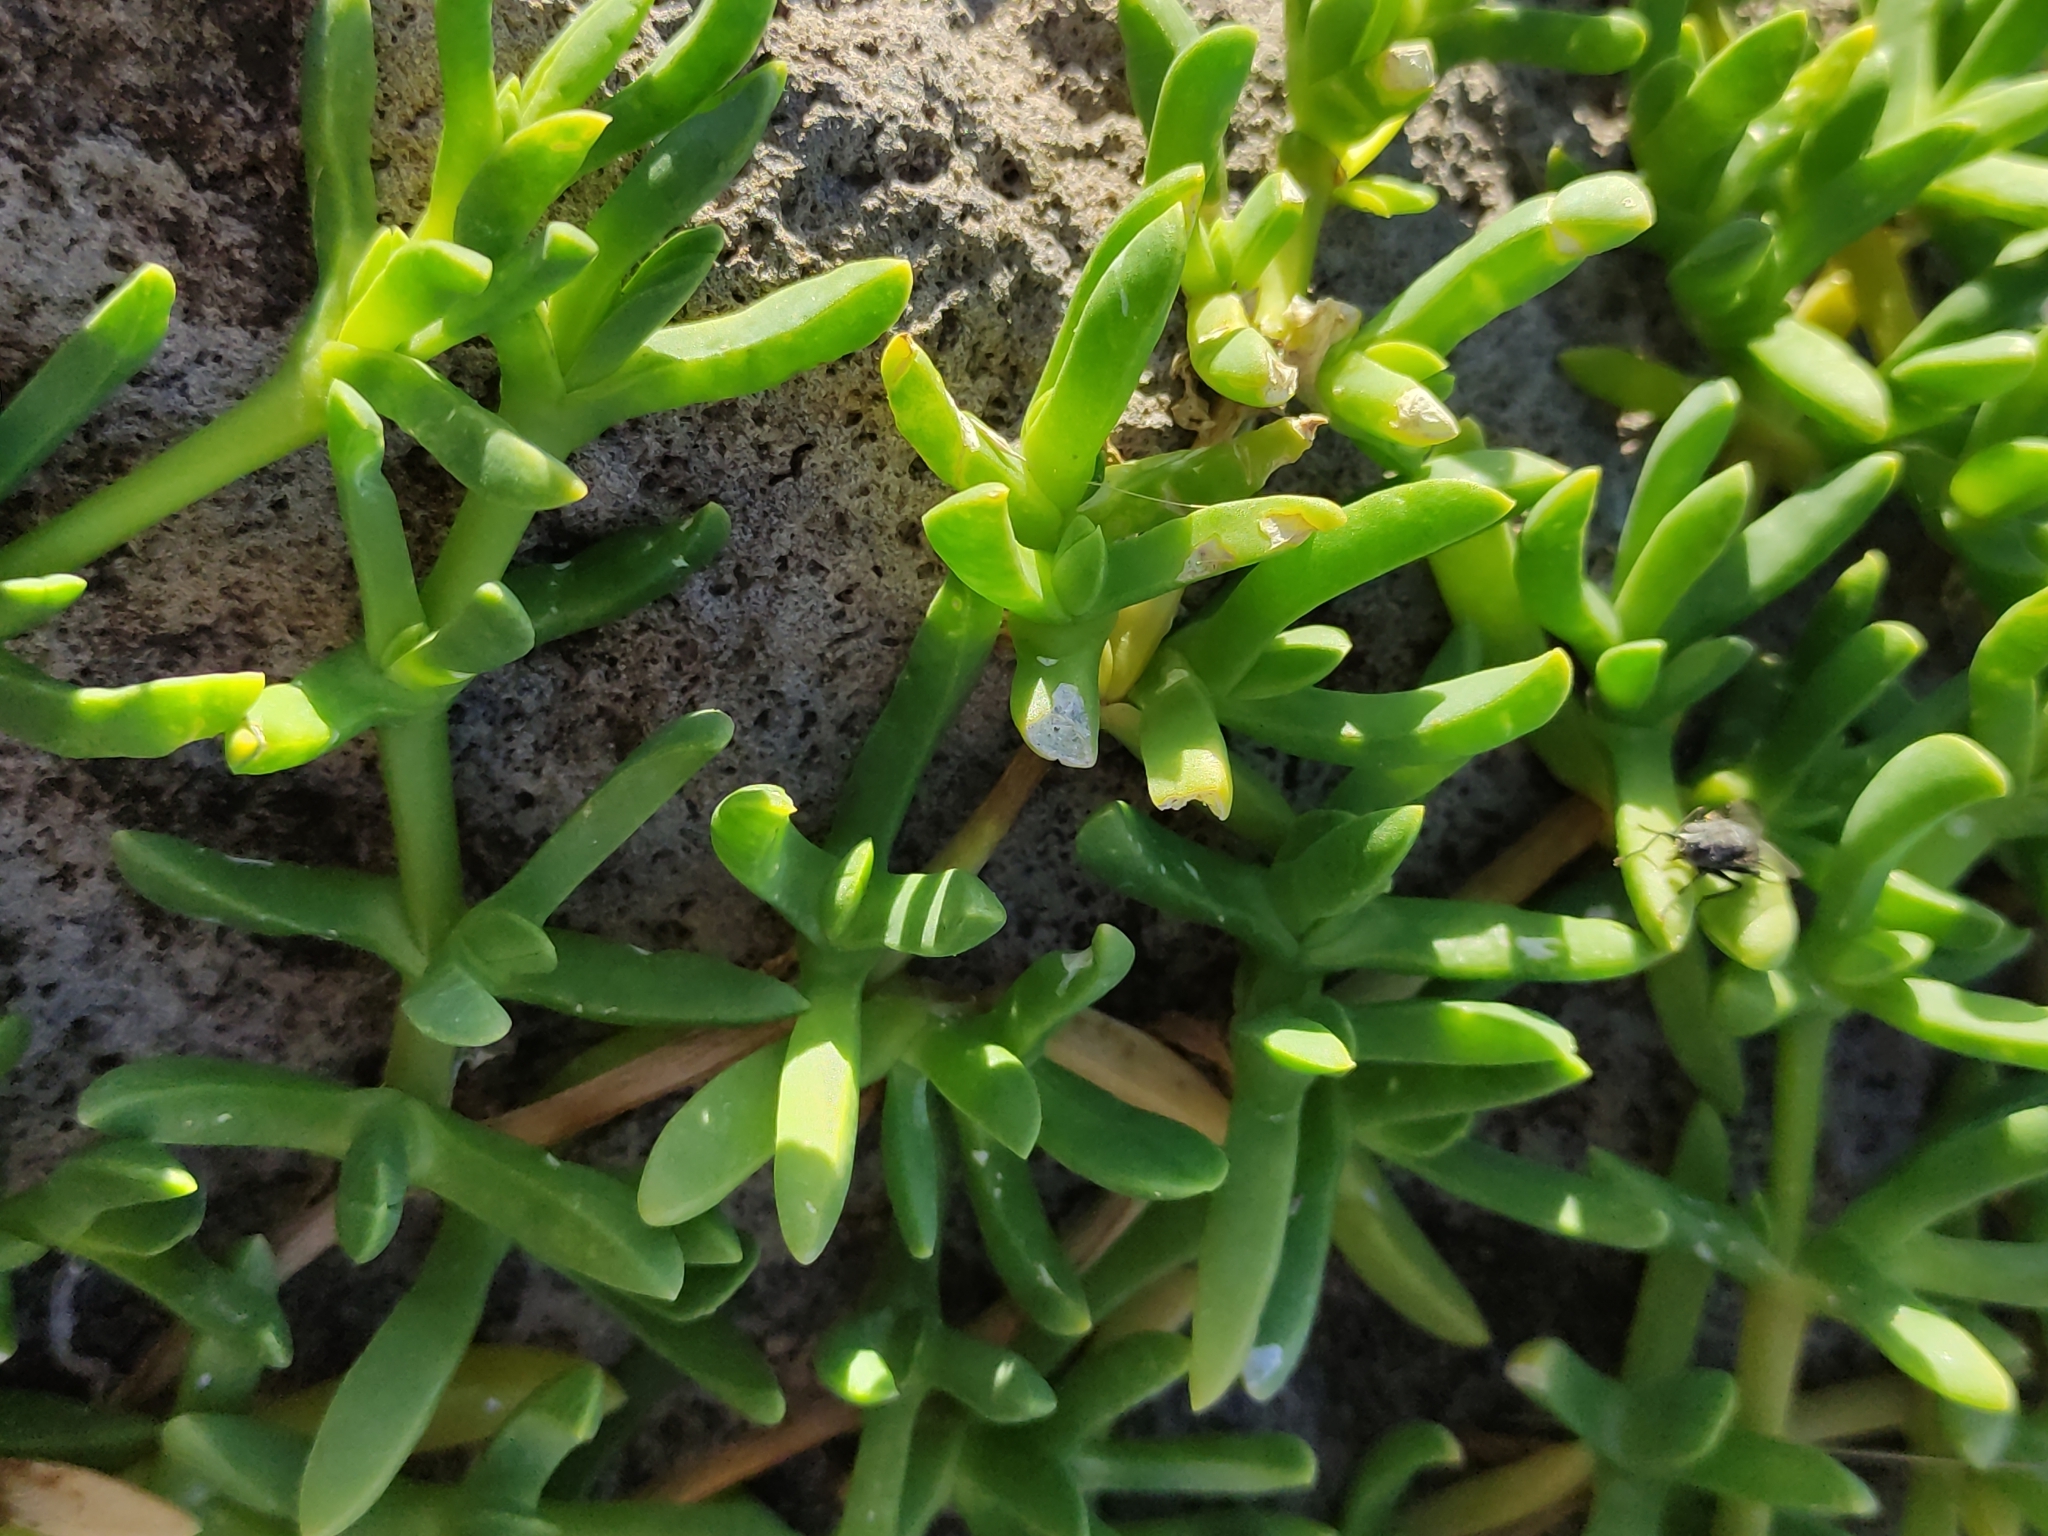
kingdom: Plantae
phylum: Tracheophyta
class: Magnoliopsida
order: Caryophyllales
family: Aizoaceae
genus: Disphyma
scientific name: Disphyma australe
